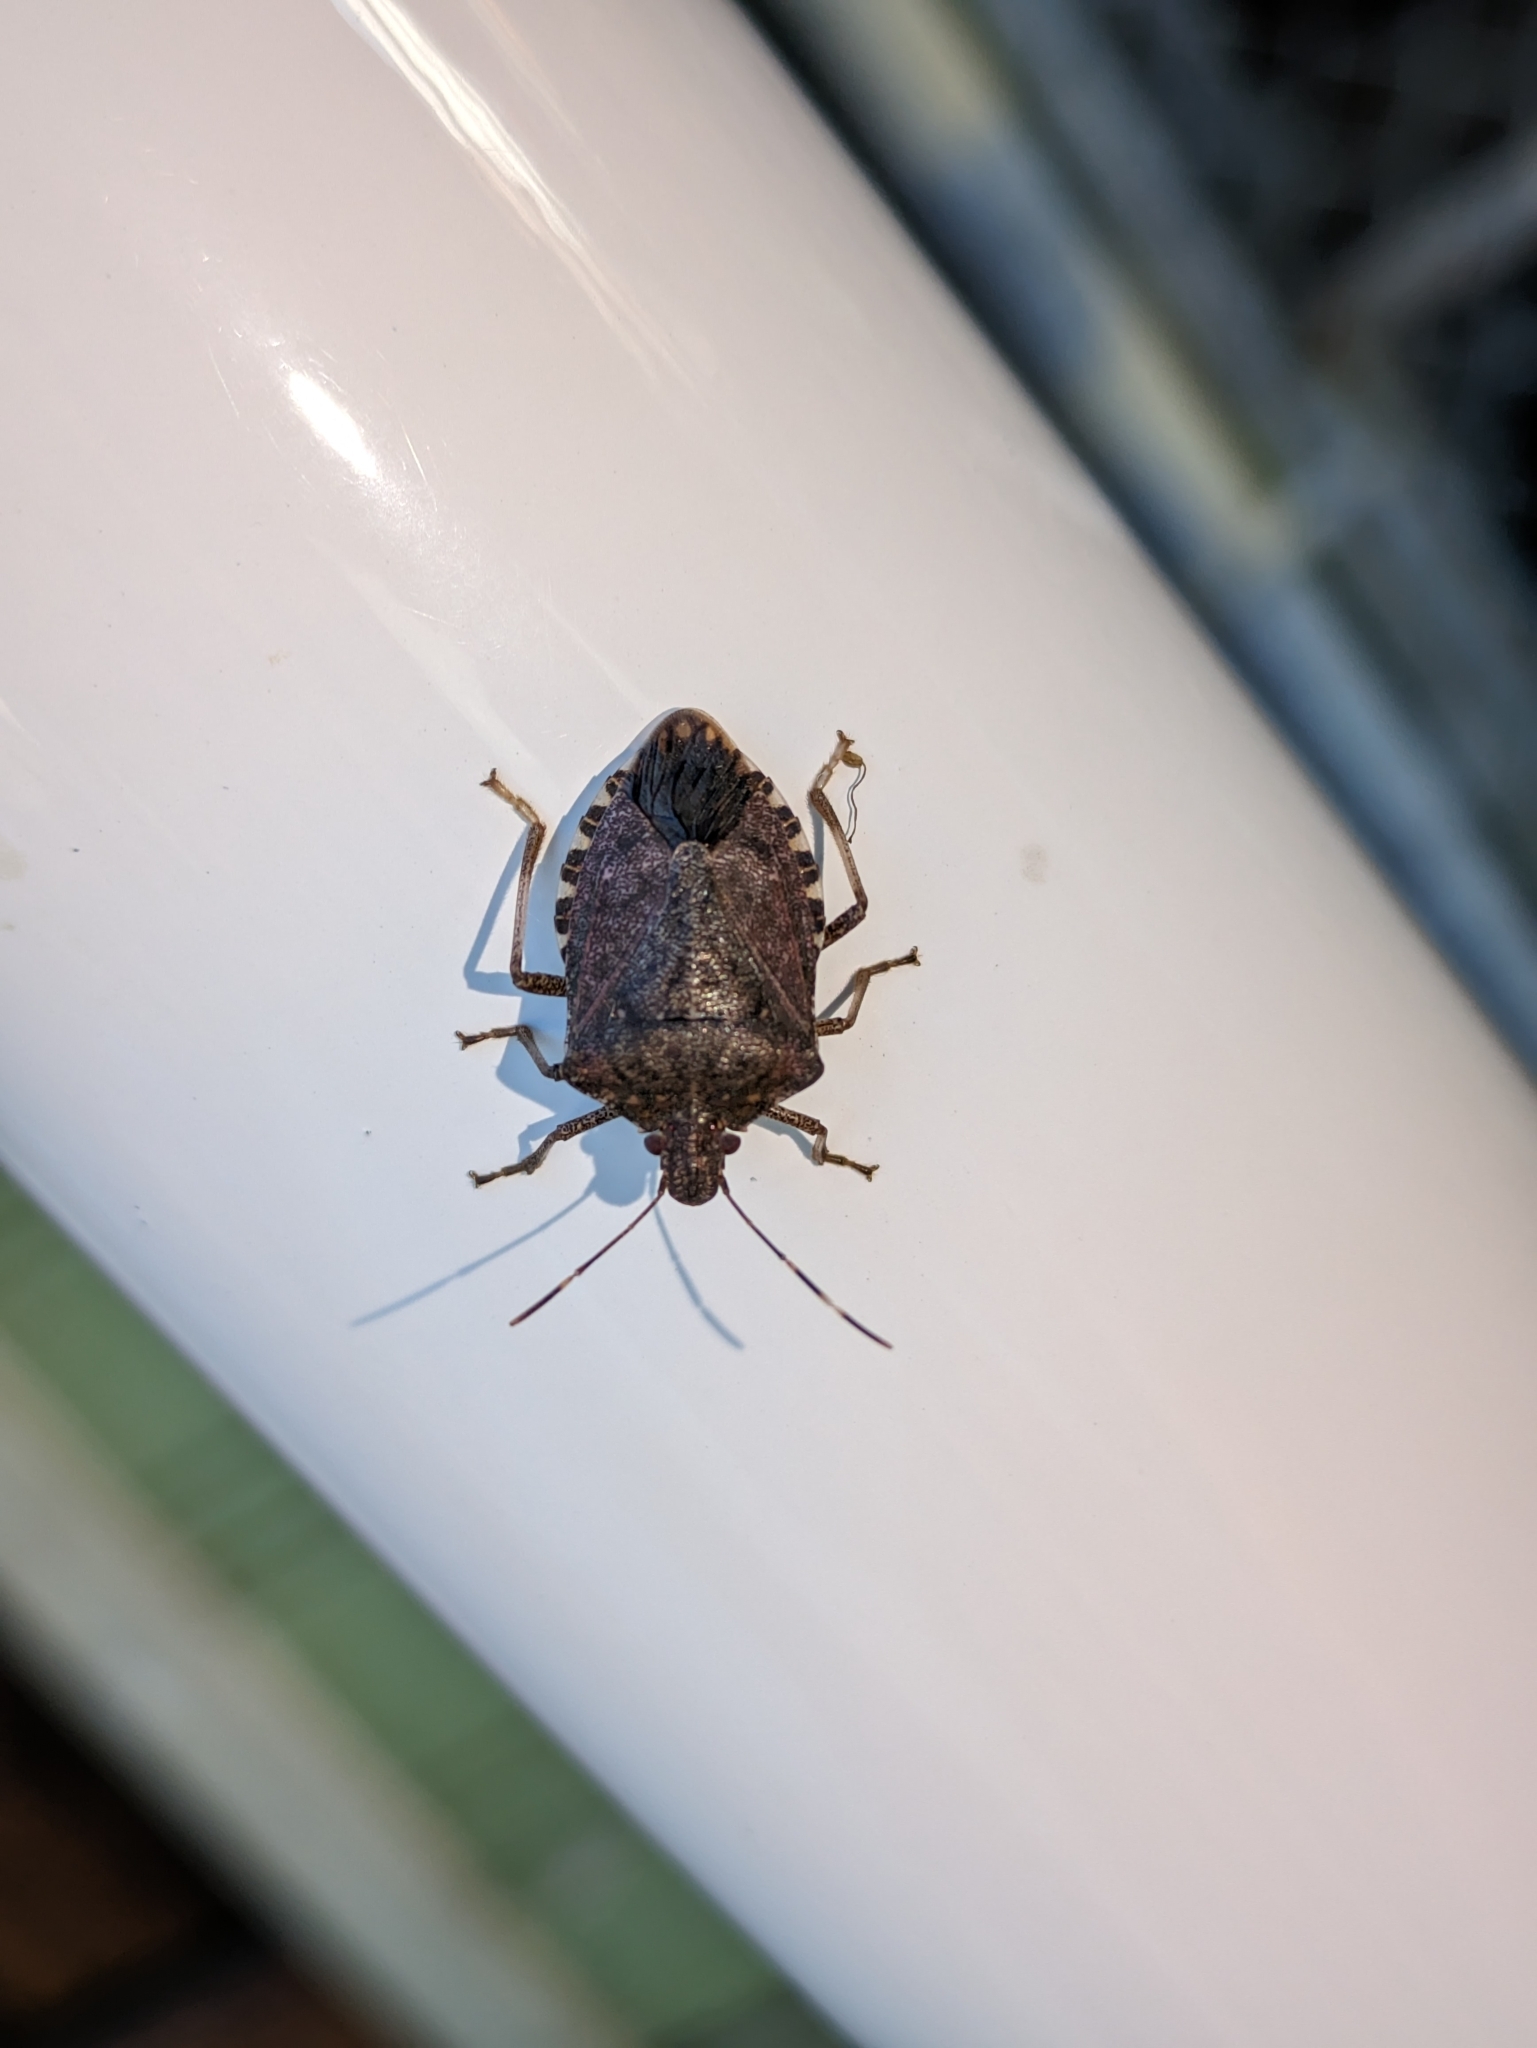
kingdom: Animalia
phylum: Arthropoda
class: Insecta
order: Hemiptera
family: Pentatomidae
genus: Halyomorpha
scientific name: Halyomorpha halys
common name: Brown marmorated stink bug
